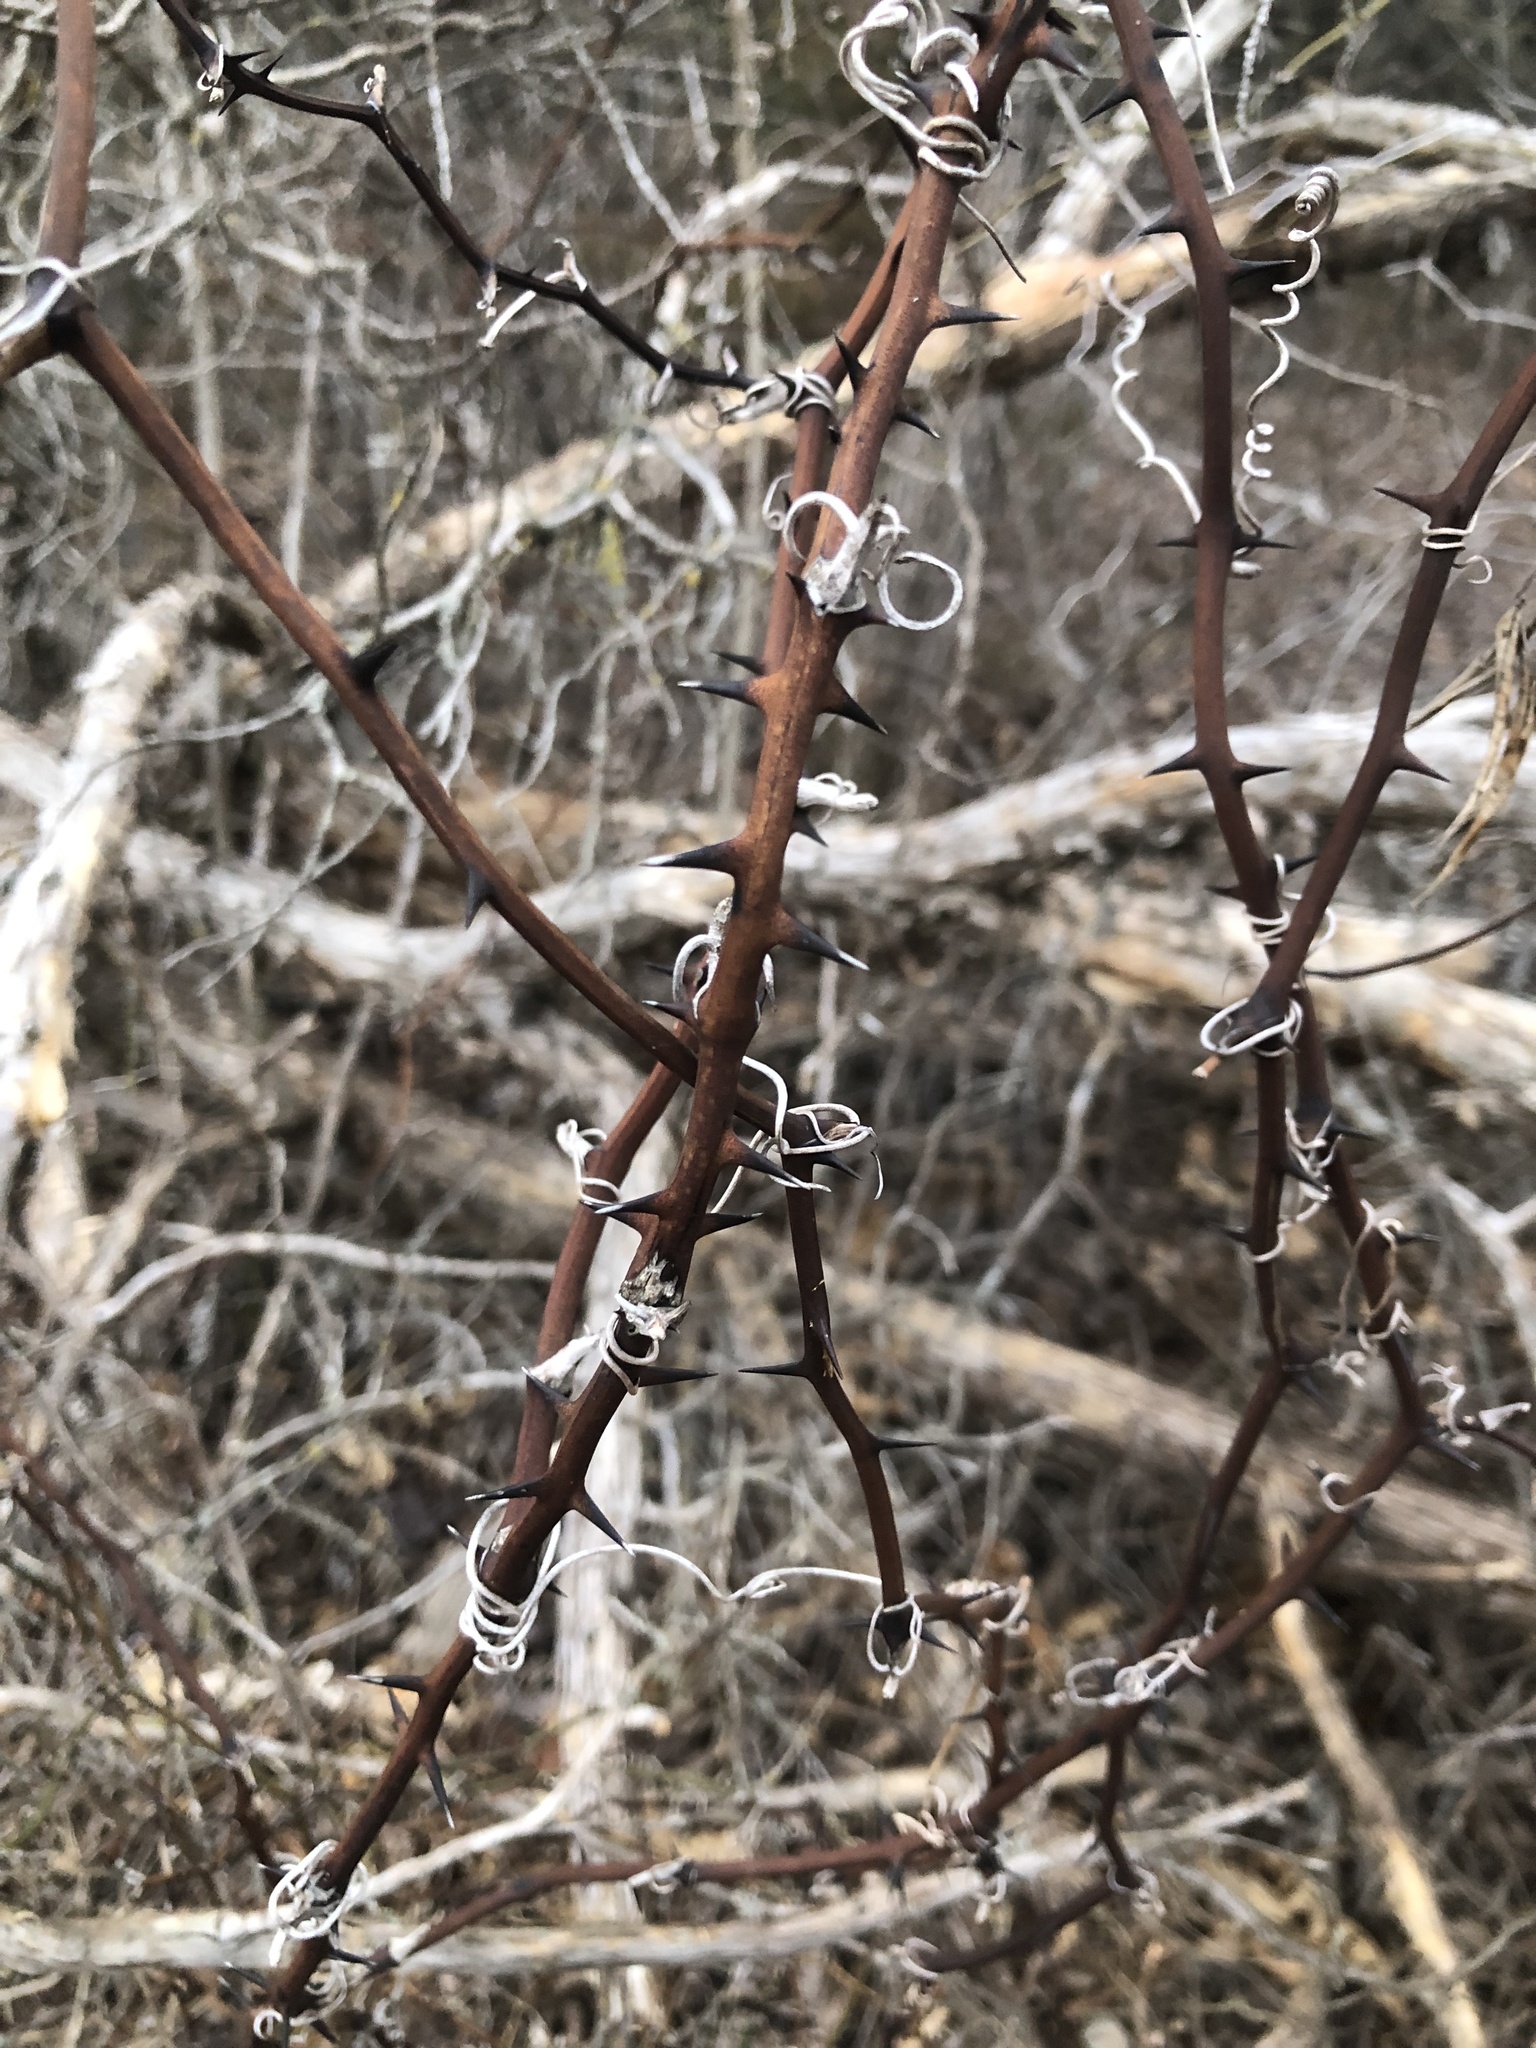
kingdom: Plantae
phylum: Tracheophyta
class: Liliopsida
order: Liliales
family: Smilacaceae
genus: Smilax
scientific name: Smilax bona-nox
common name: Catbrier
